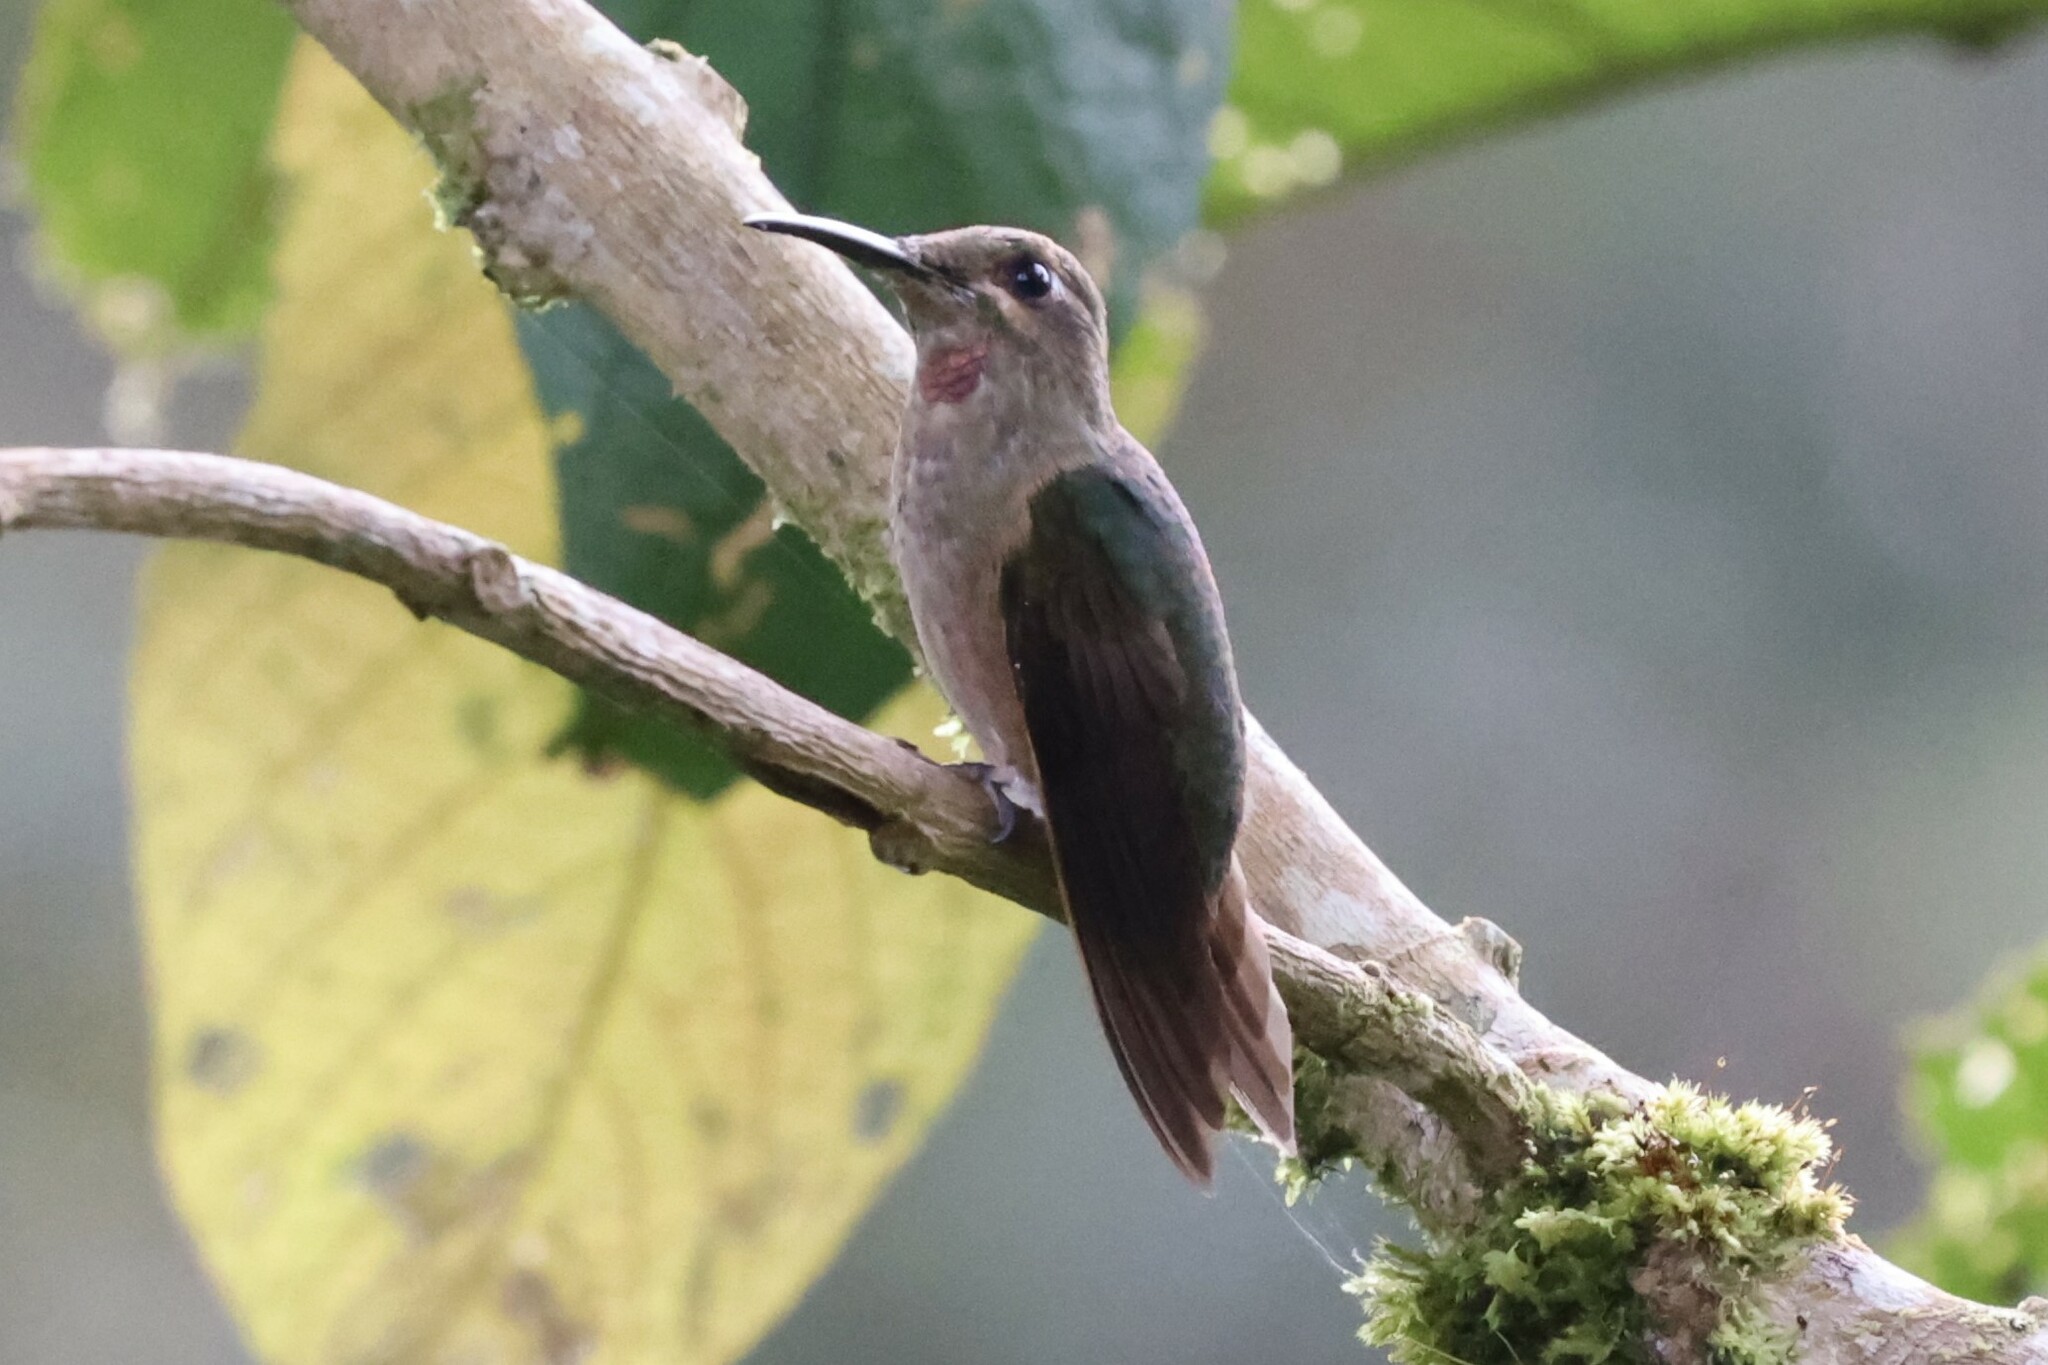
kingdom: Animalia
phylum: Chordata
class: Aves
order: Apodiformes
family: Trochilidae
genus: Heliodoxa
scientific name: Heliodoxa rubinoides
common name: Fawn-breasted brilliant
